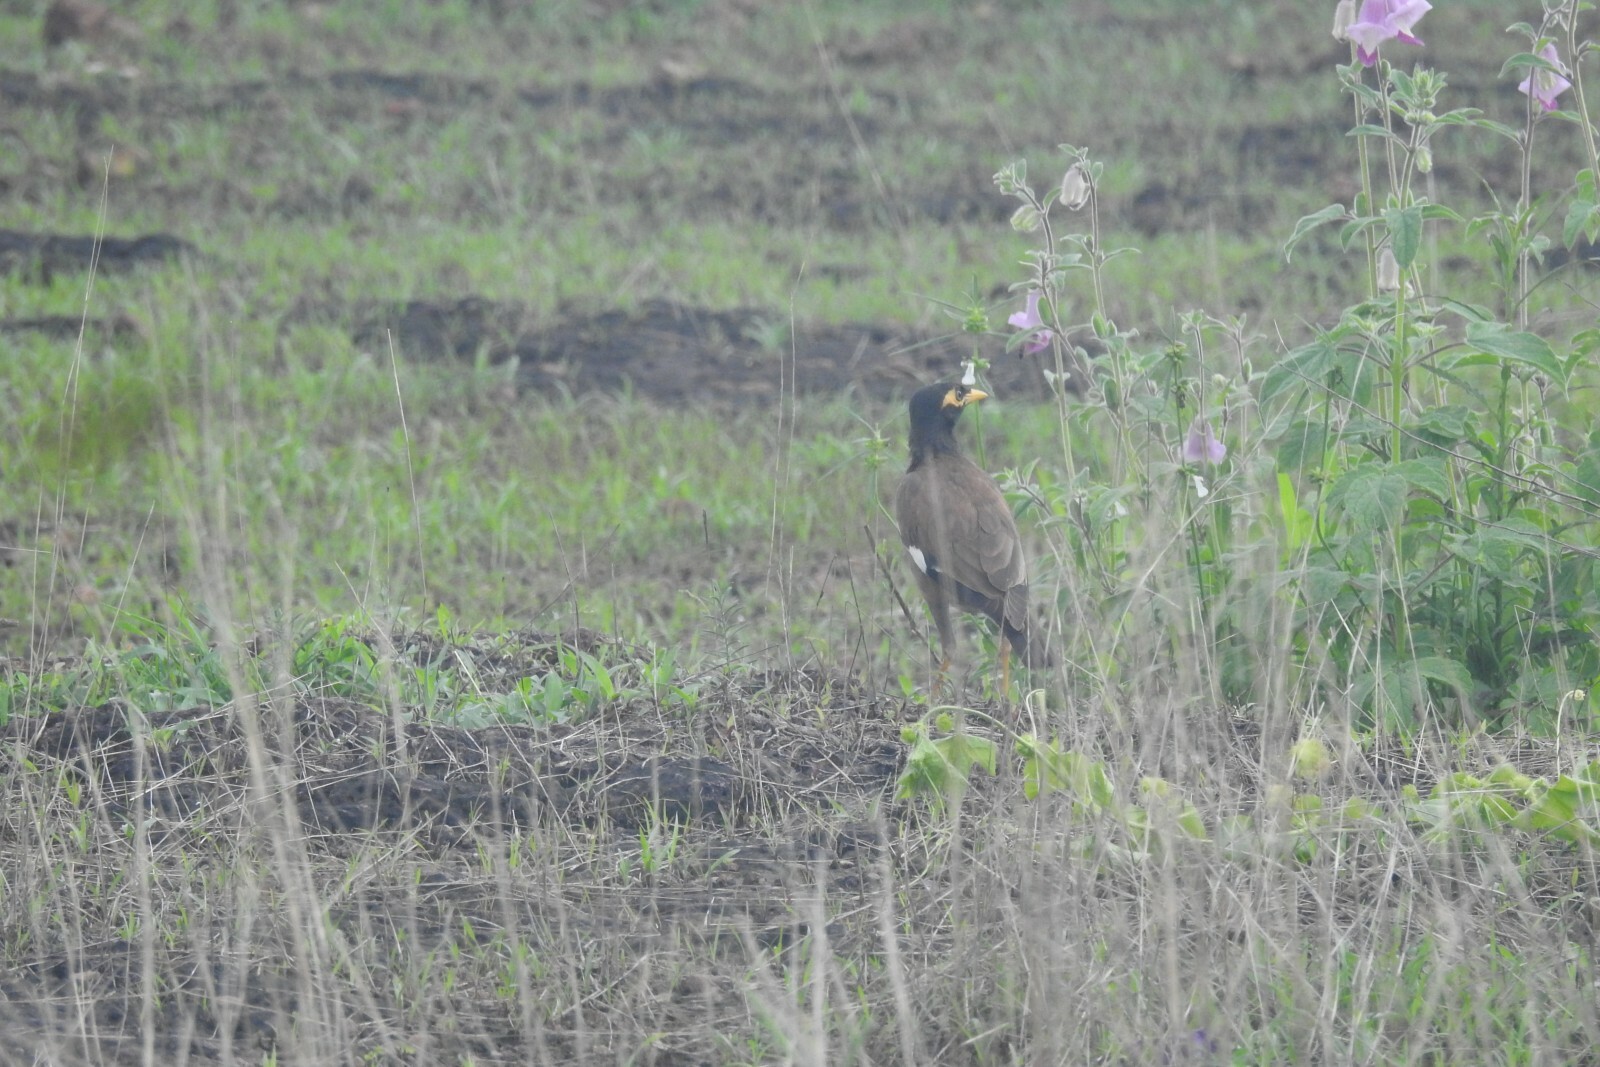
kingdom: Animalia
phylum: Chordata
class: Aves
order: Passeriformes
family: Sturnidae
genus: Acridotheres
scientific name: Acridotheres tristis
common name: Common myna
